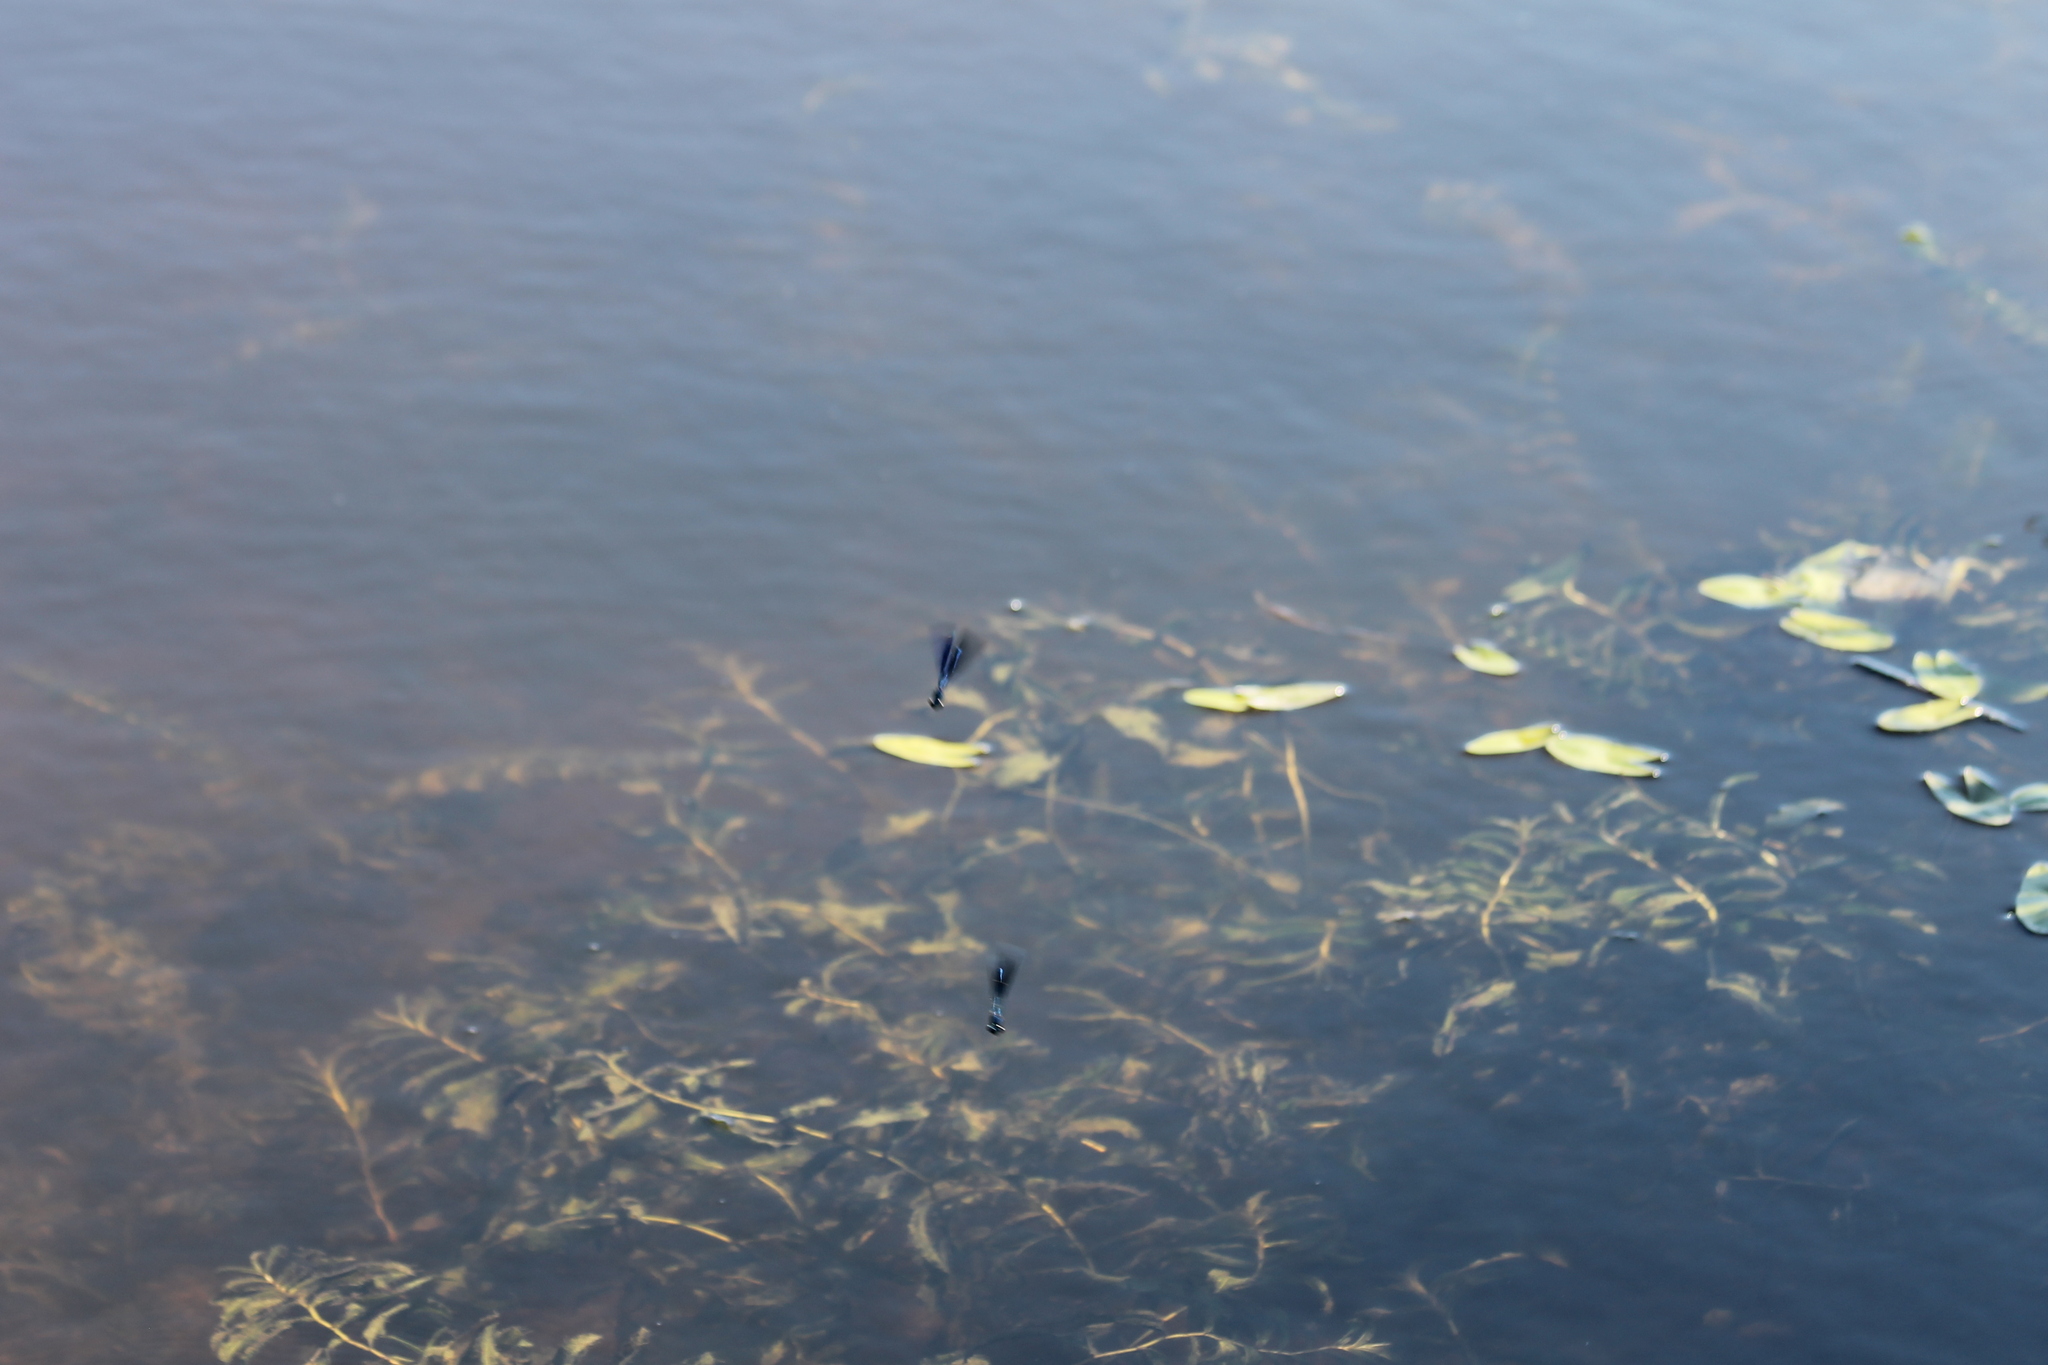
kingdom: Animalia
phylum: Arthropoda
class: Insecta
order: Odonata
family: Calopterygidae
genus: Calopteryx
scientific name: Calopteryx splendens
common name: Banded demoiselle
